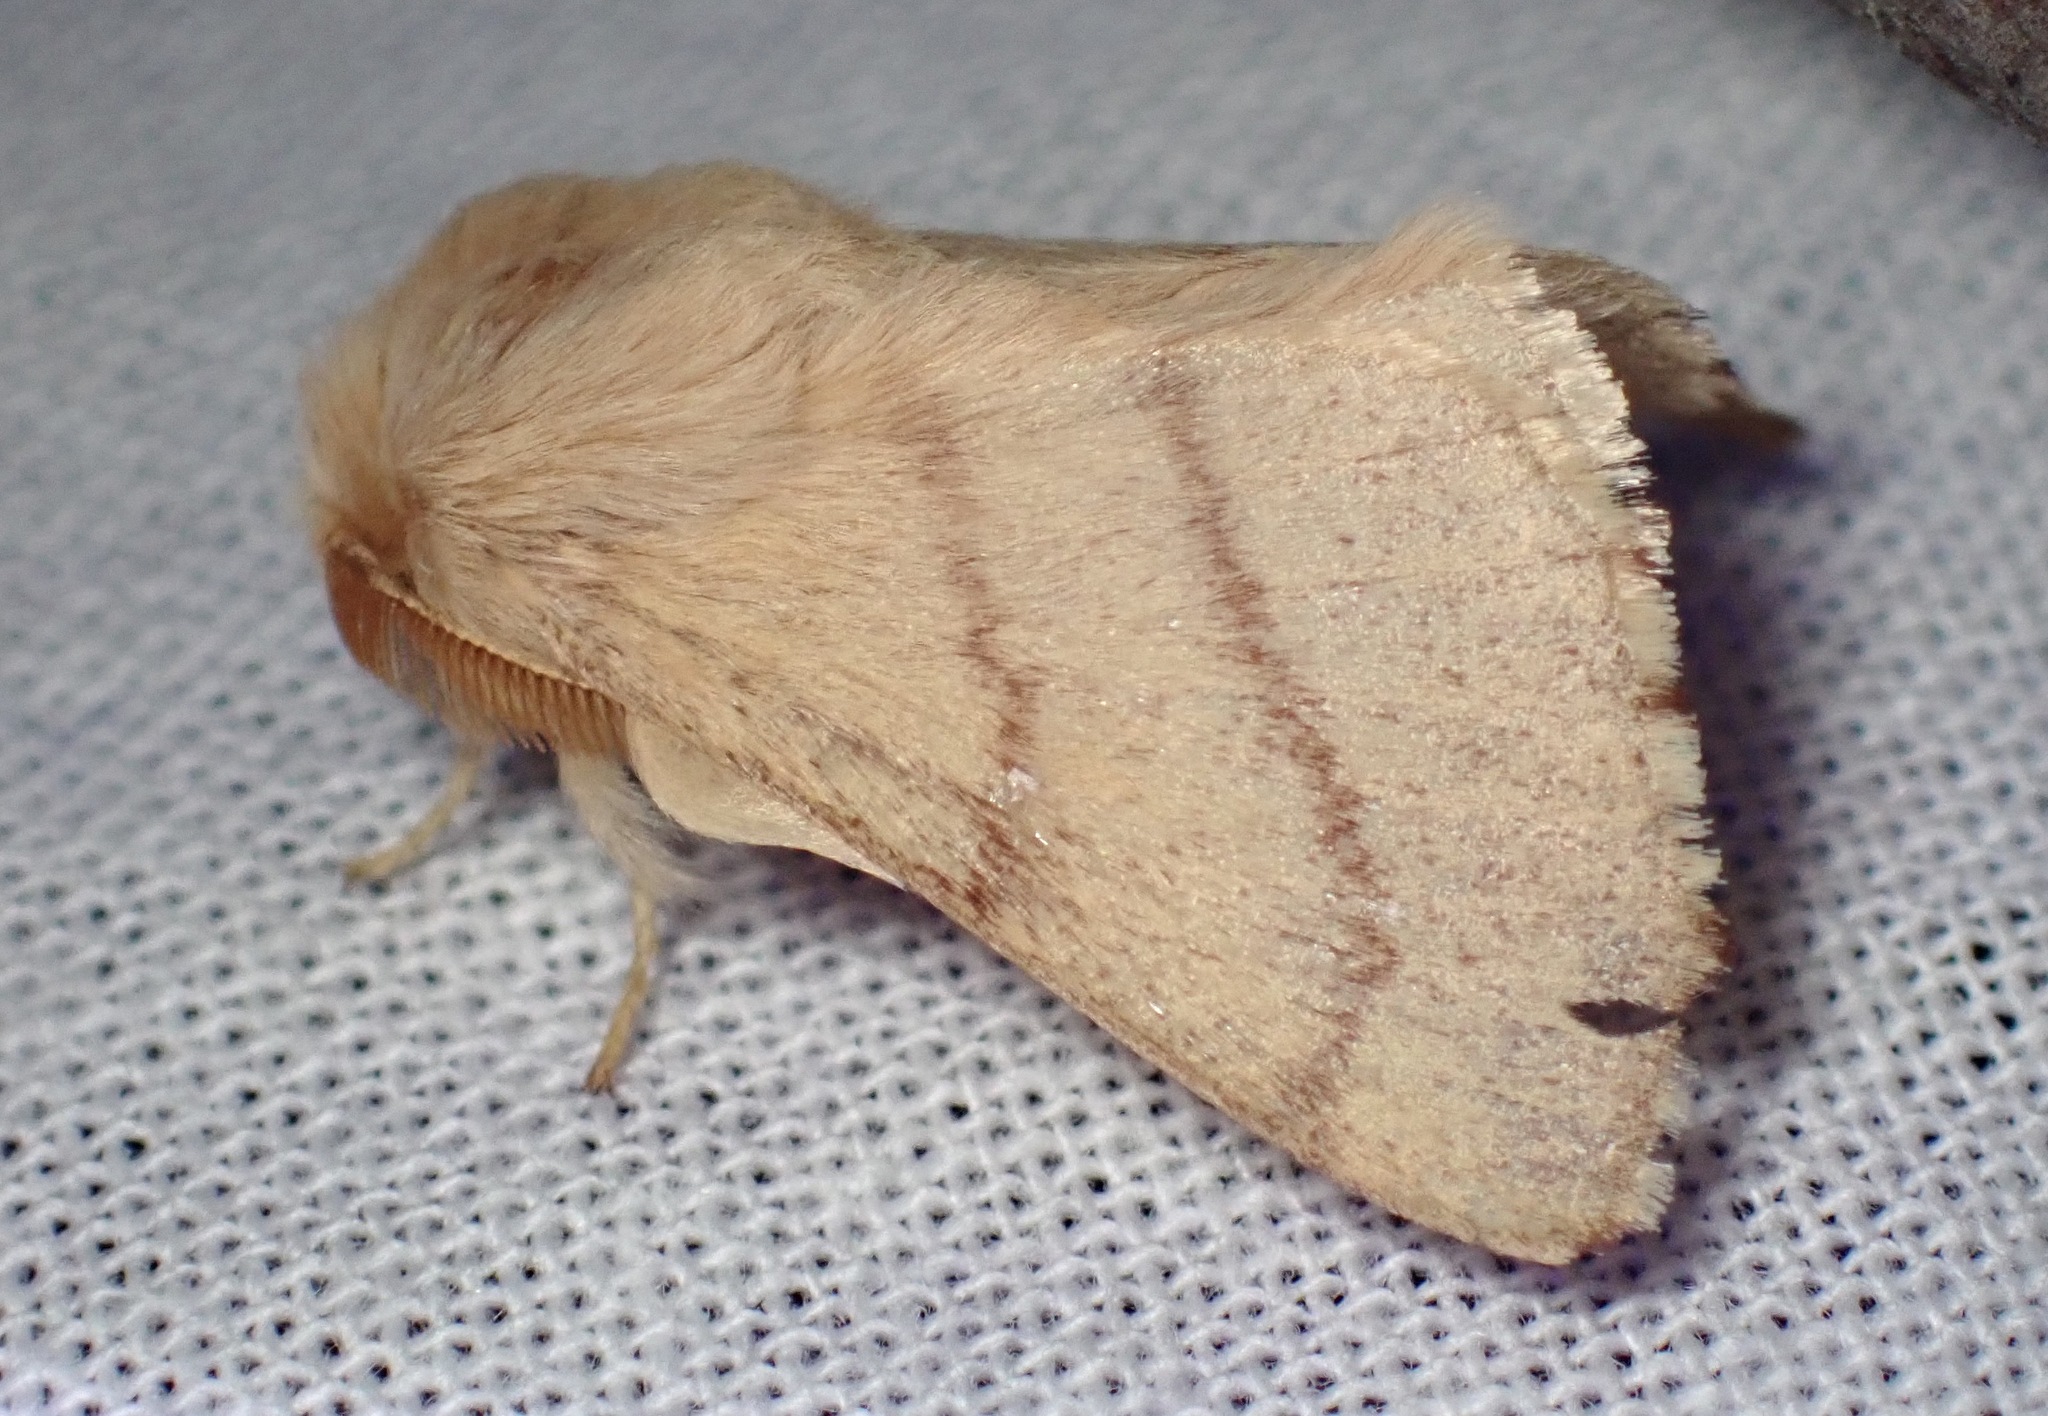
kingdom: Animalia
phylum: Arthropoda
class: Insecta
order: Lepidoptera
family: Lasiocampidae
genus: Malacosoma
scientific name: Malacosoma constricta
